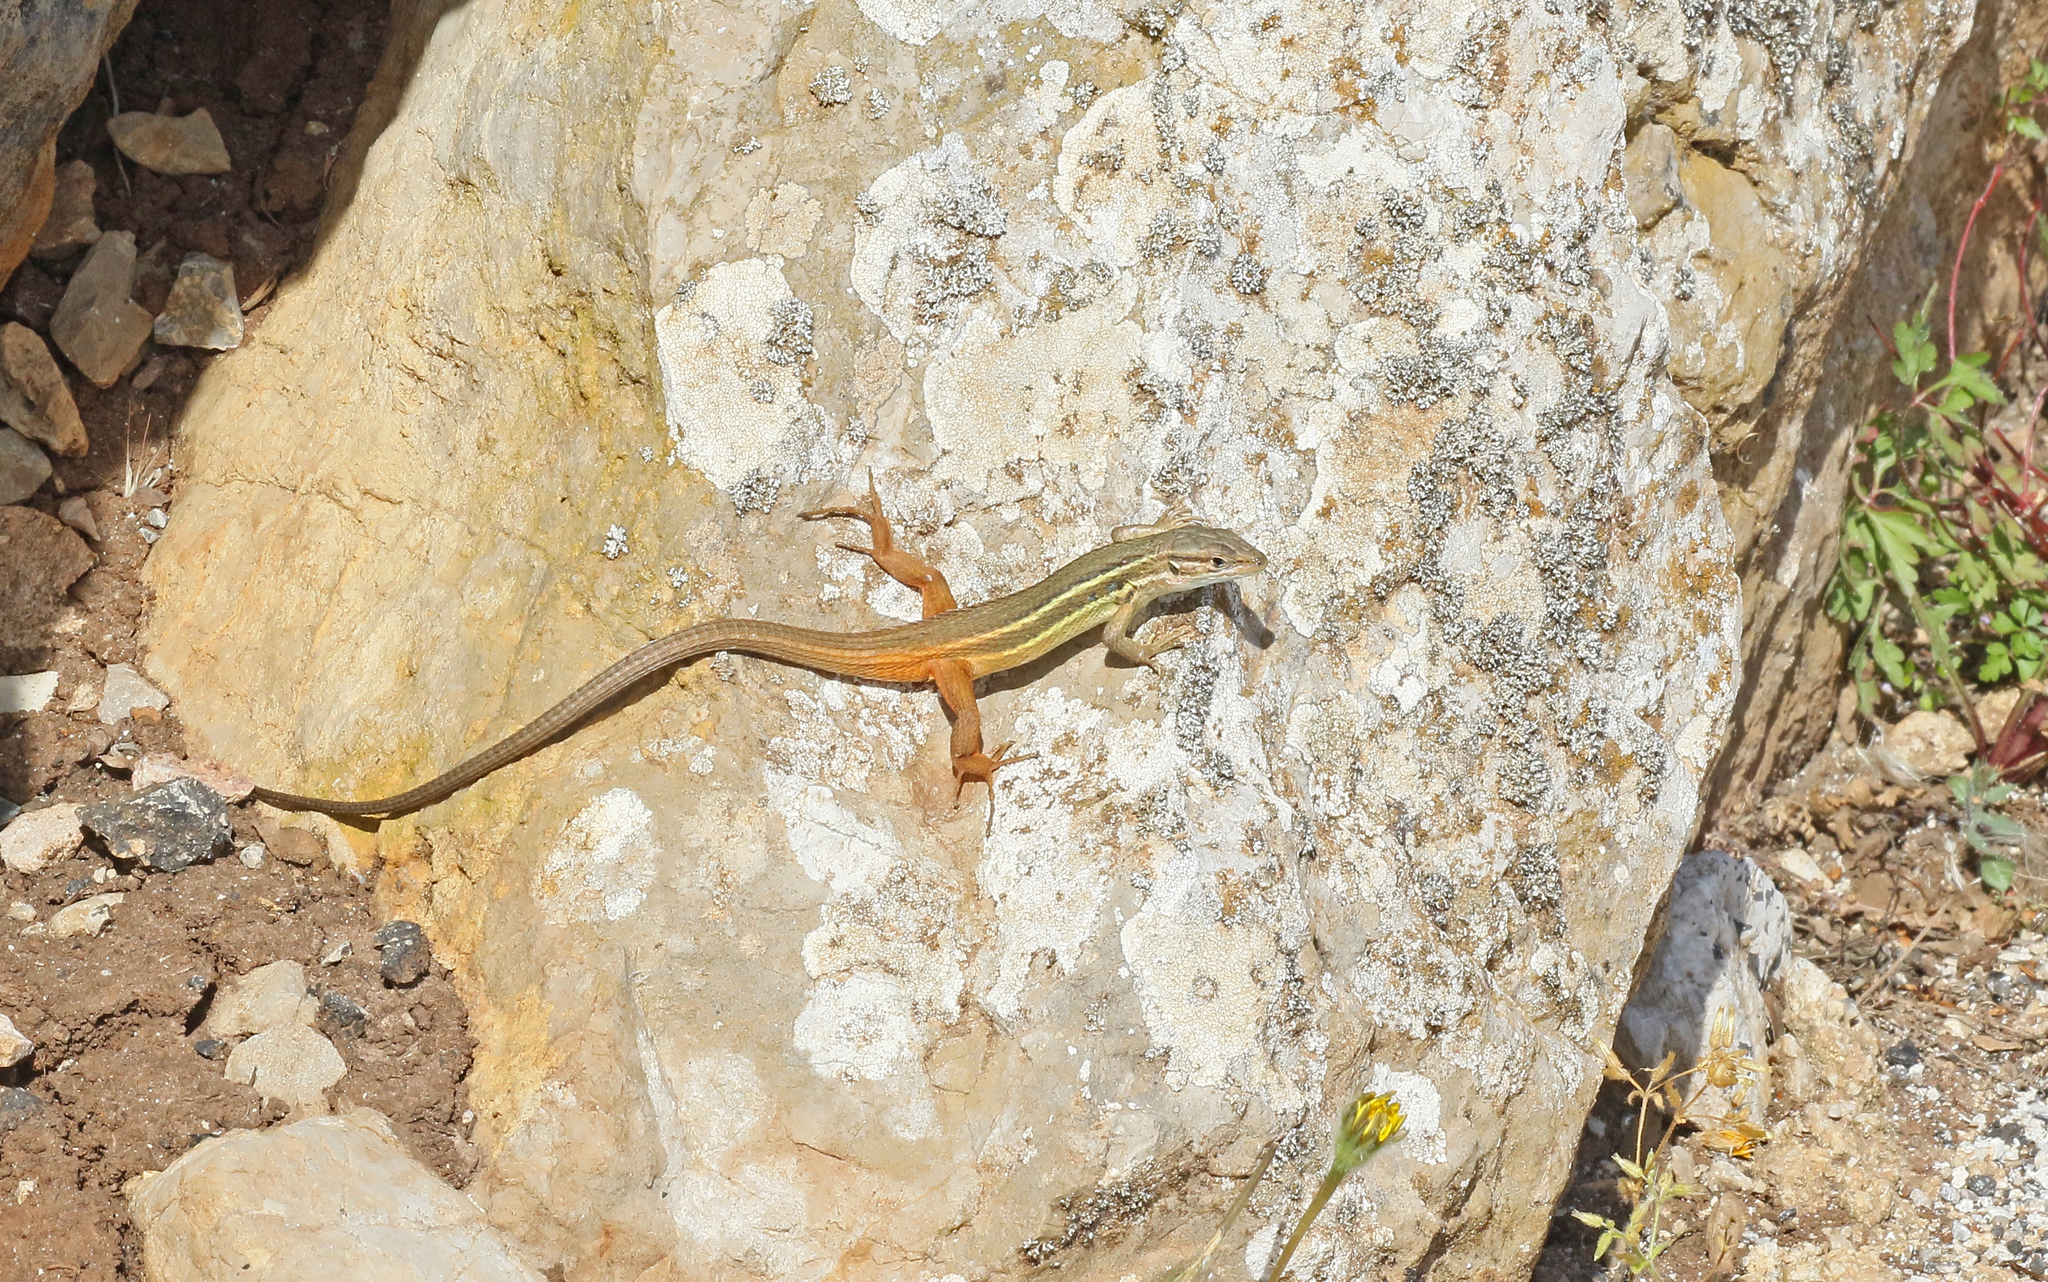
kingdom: Animalia
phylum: Chordata
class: Squamata
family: Lacertidae
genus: Psammodromus
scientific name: Psammodromus algirus
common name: Algerian psammodromus
